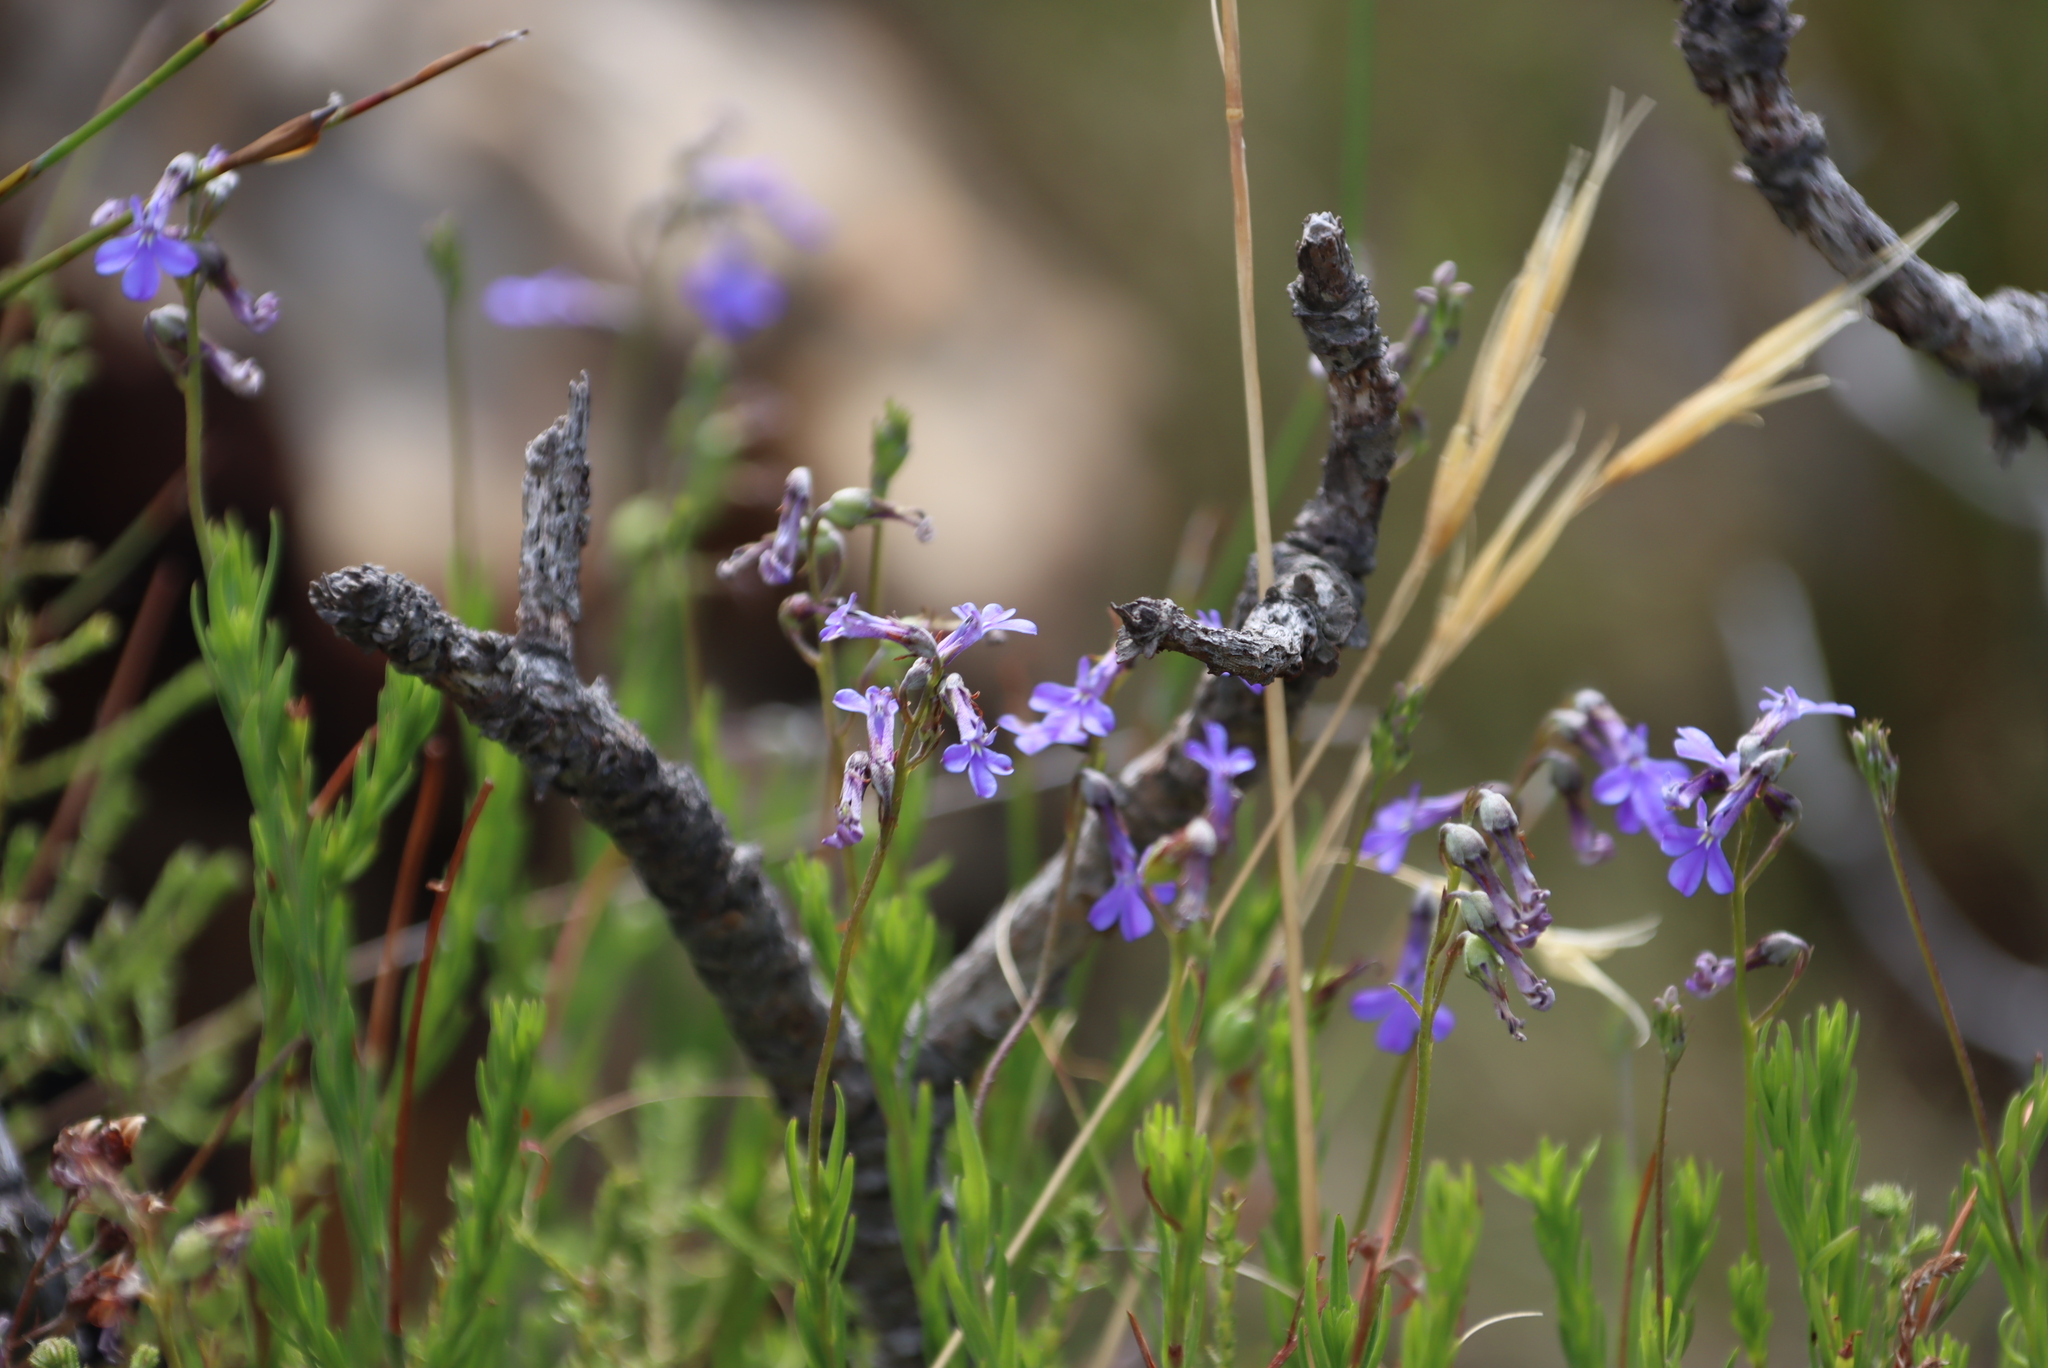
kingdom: Plantae
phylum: Tracheophyta
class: Magnoliopsida
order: Asterales
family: Campanulaceae
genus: Lobelia
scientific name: Lobelia pinifolia
